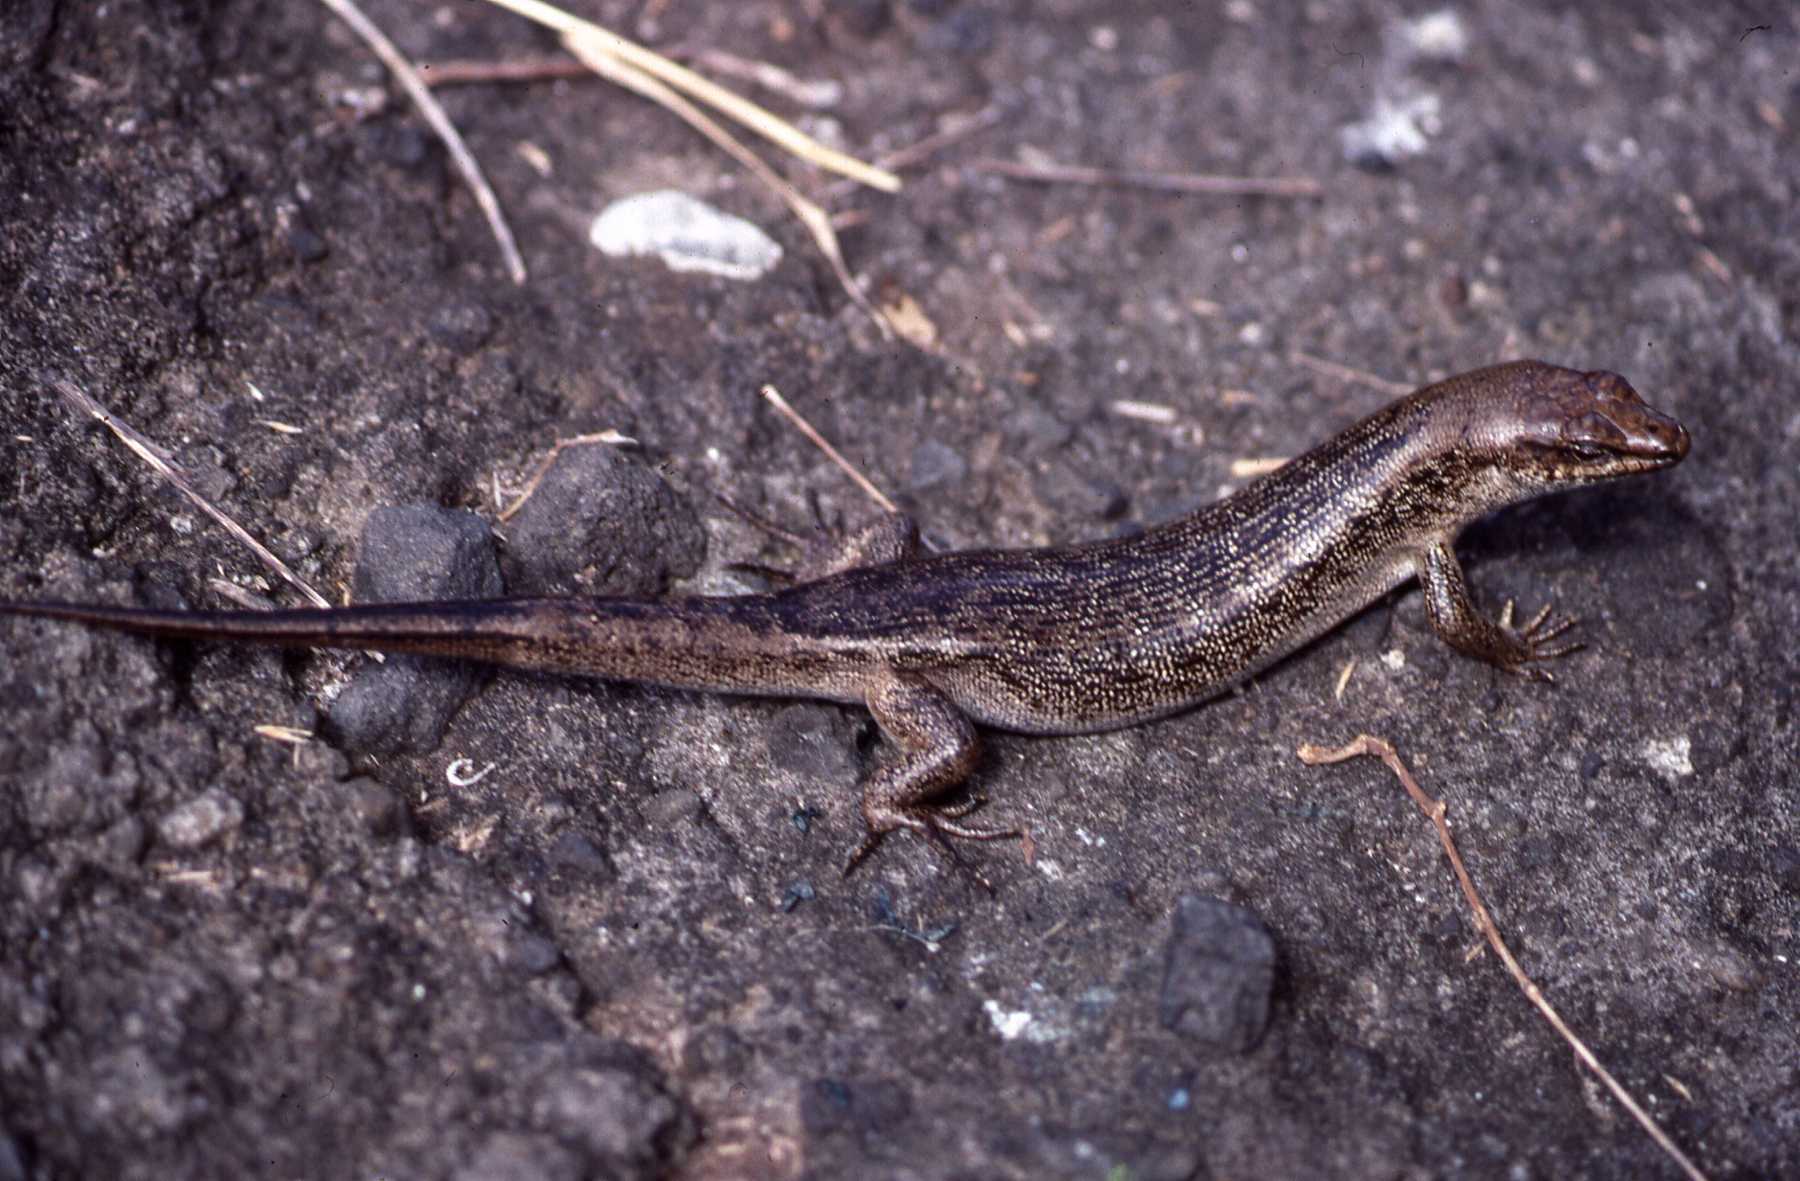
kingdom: Animalia
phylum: Chordata
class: Squamata
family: Scincidae
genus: Leiolopisma
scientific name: Leiolopisma telfairii
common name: Round island skink
